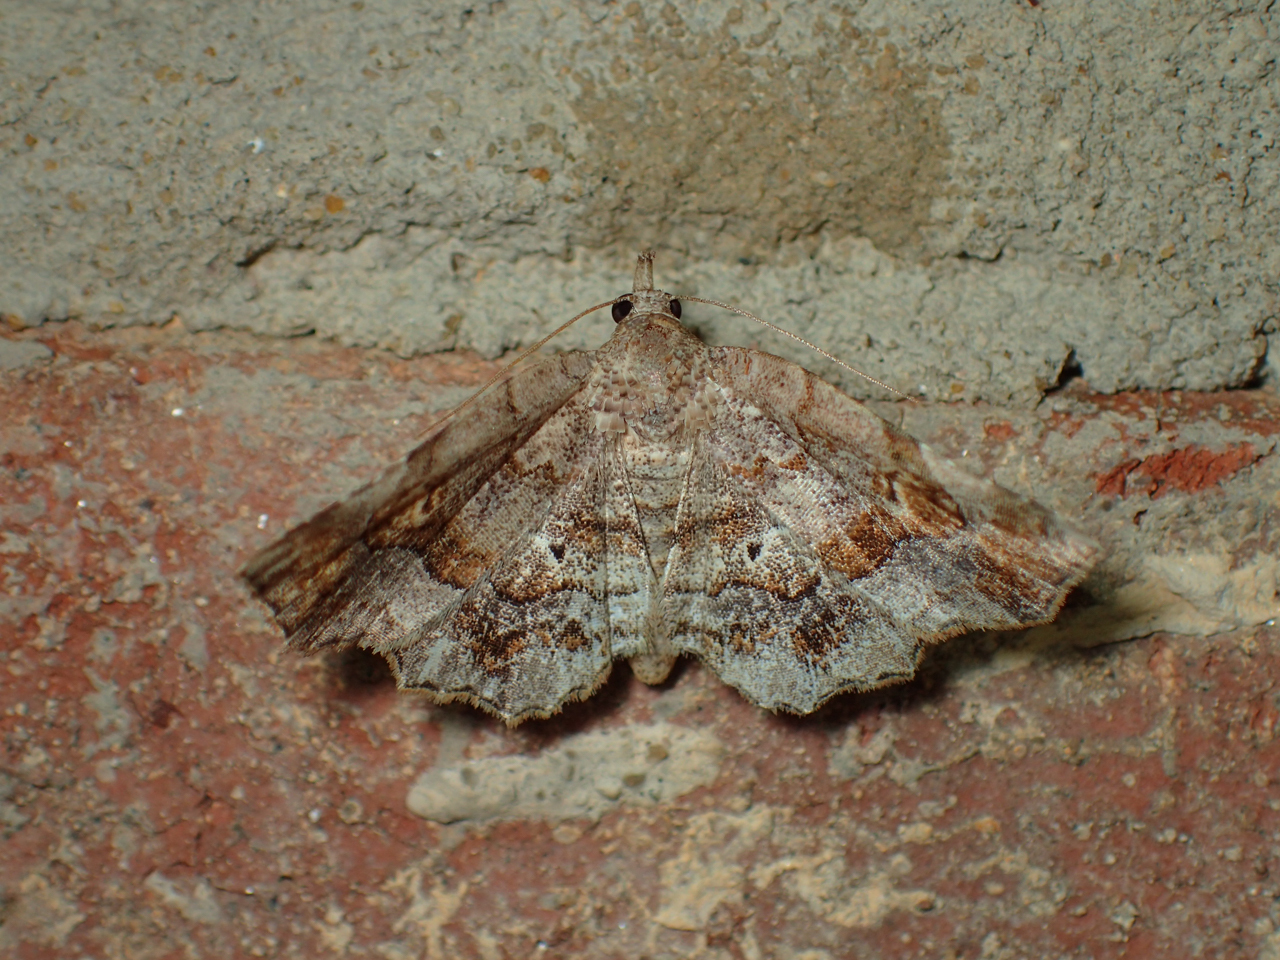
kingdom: Animalia
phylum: Arthropoda
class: Insecta
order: Lepidoptera
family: Erebidae
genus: Pangrapta
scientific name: Pangrapta decoralis
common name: Decorated owlet
